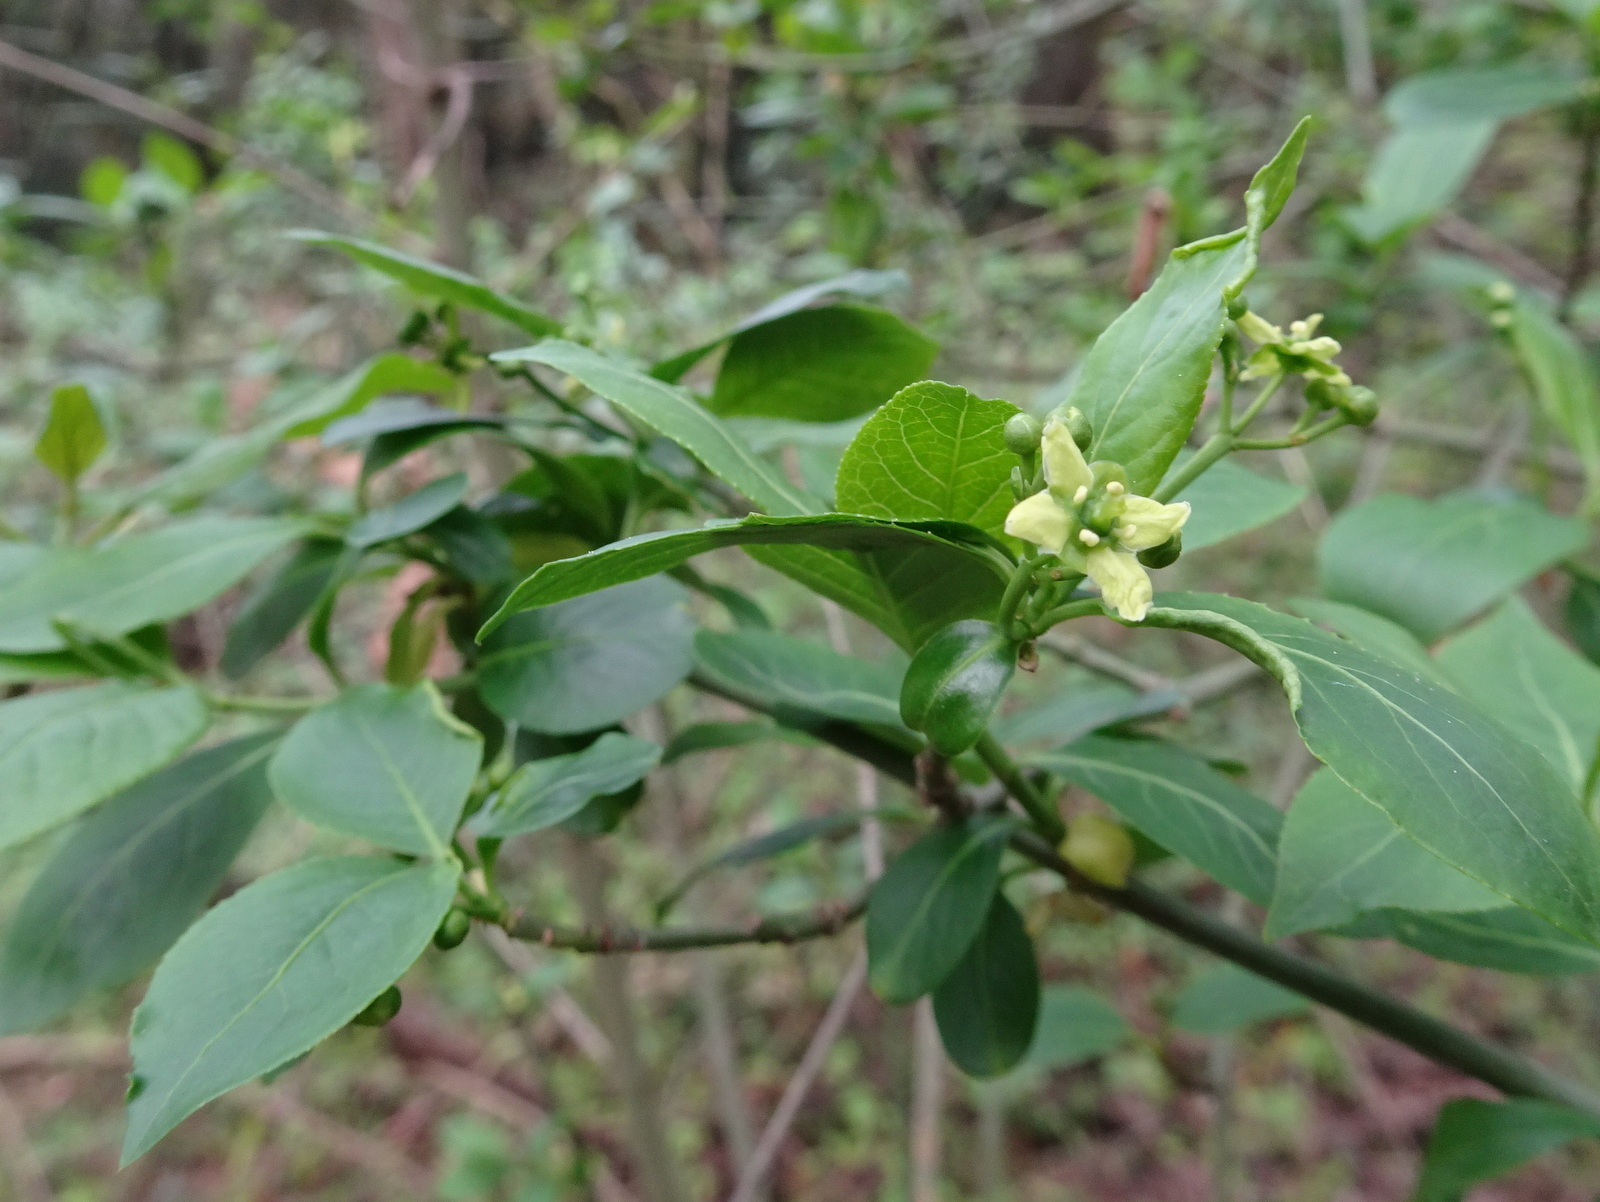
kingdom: Plantae
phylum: Tracheophyta
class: Magnoliopsida
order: Celastrales
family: Celastraceae
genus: Euonymus
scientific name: Euonymus europaeus
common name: Spindle
